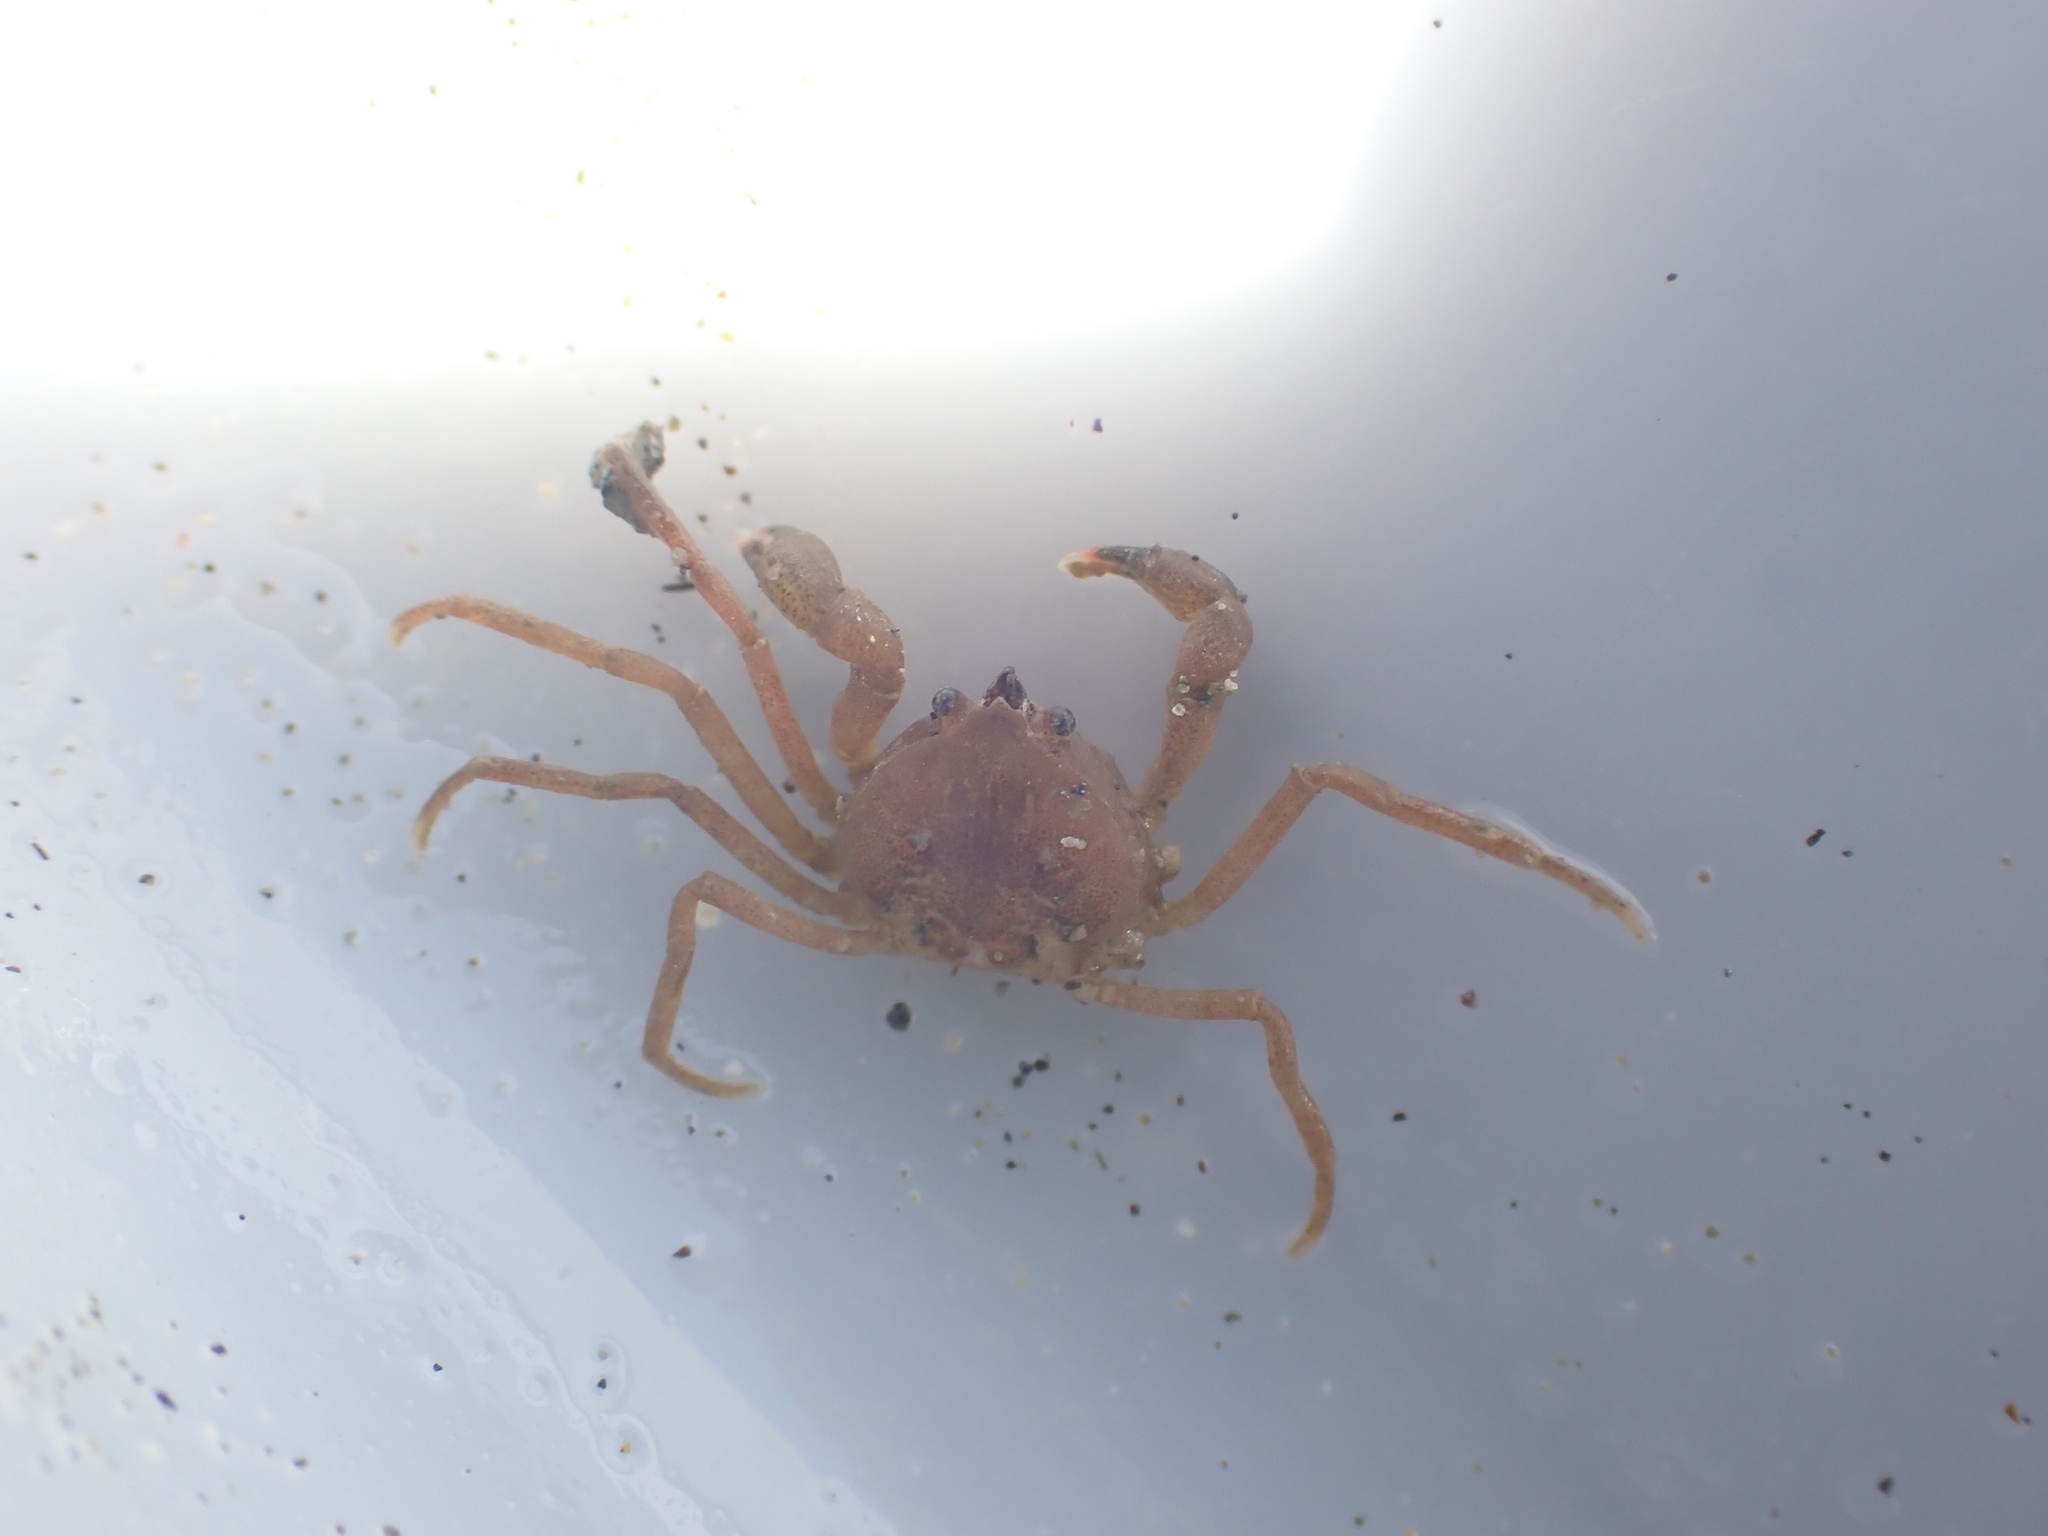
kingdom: Animalia
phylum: Arthropoda
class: Malacostraca
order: Decapoda
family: Hymenosomatidae
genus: Halicarcinus
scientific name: Halicarcinus varius
